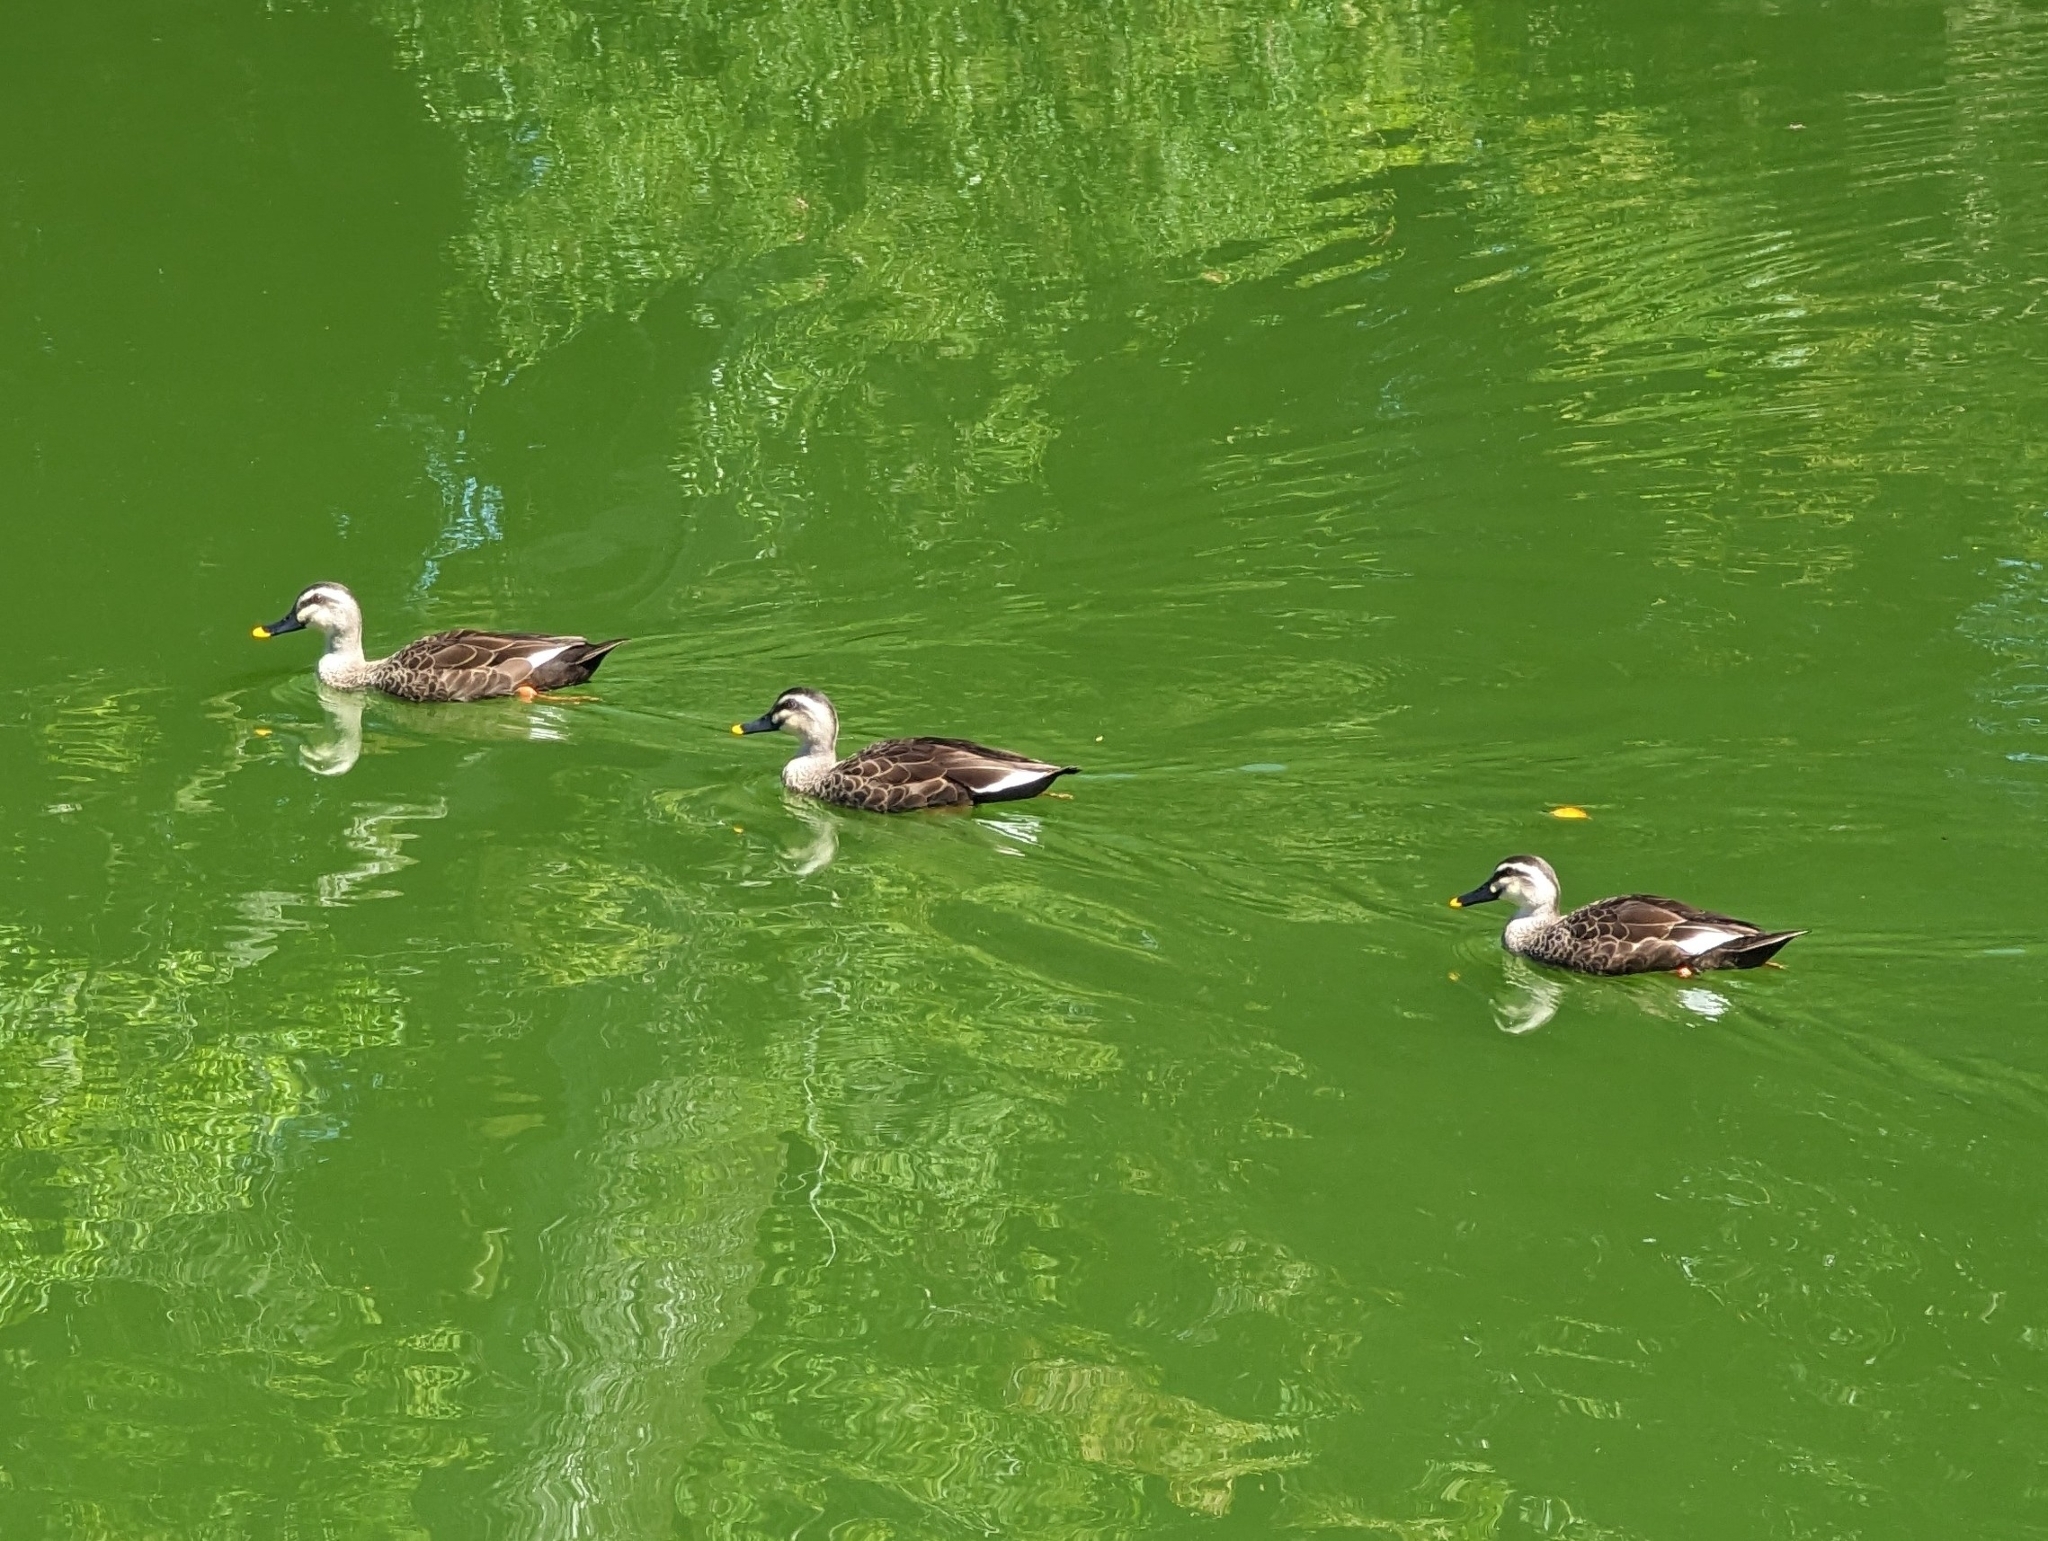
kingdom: Animalia
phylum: Chordata
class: Aves
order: Anseriformes
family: Anatidae
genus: Anas
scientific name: Anas zonorhyncha
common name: Eastern spot-billed duck
